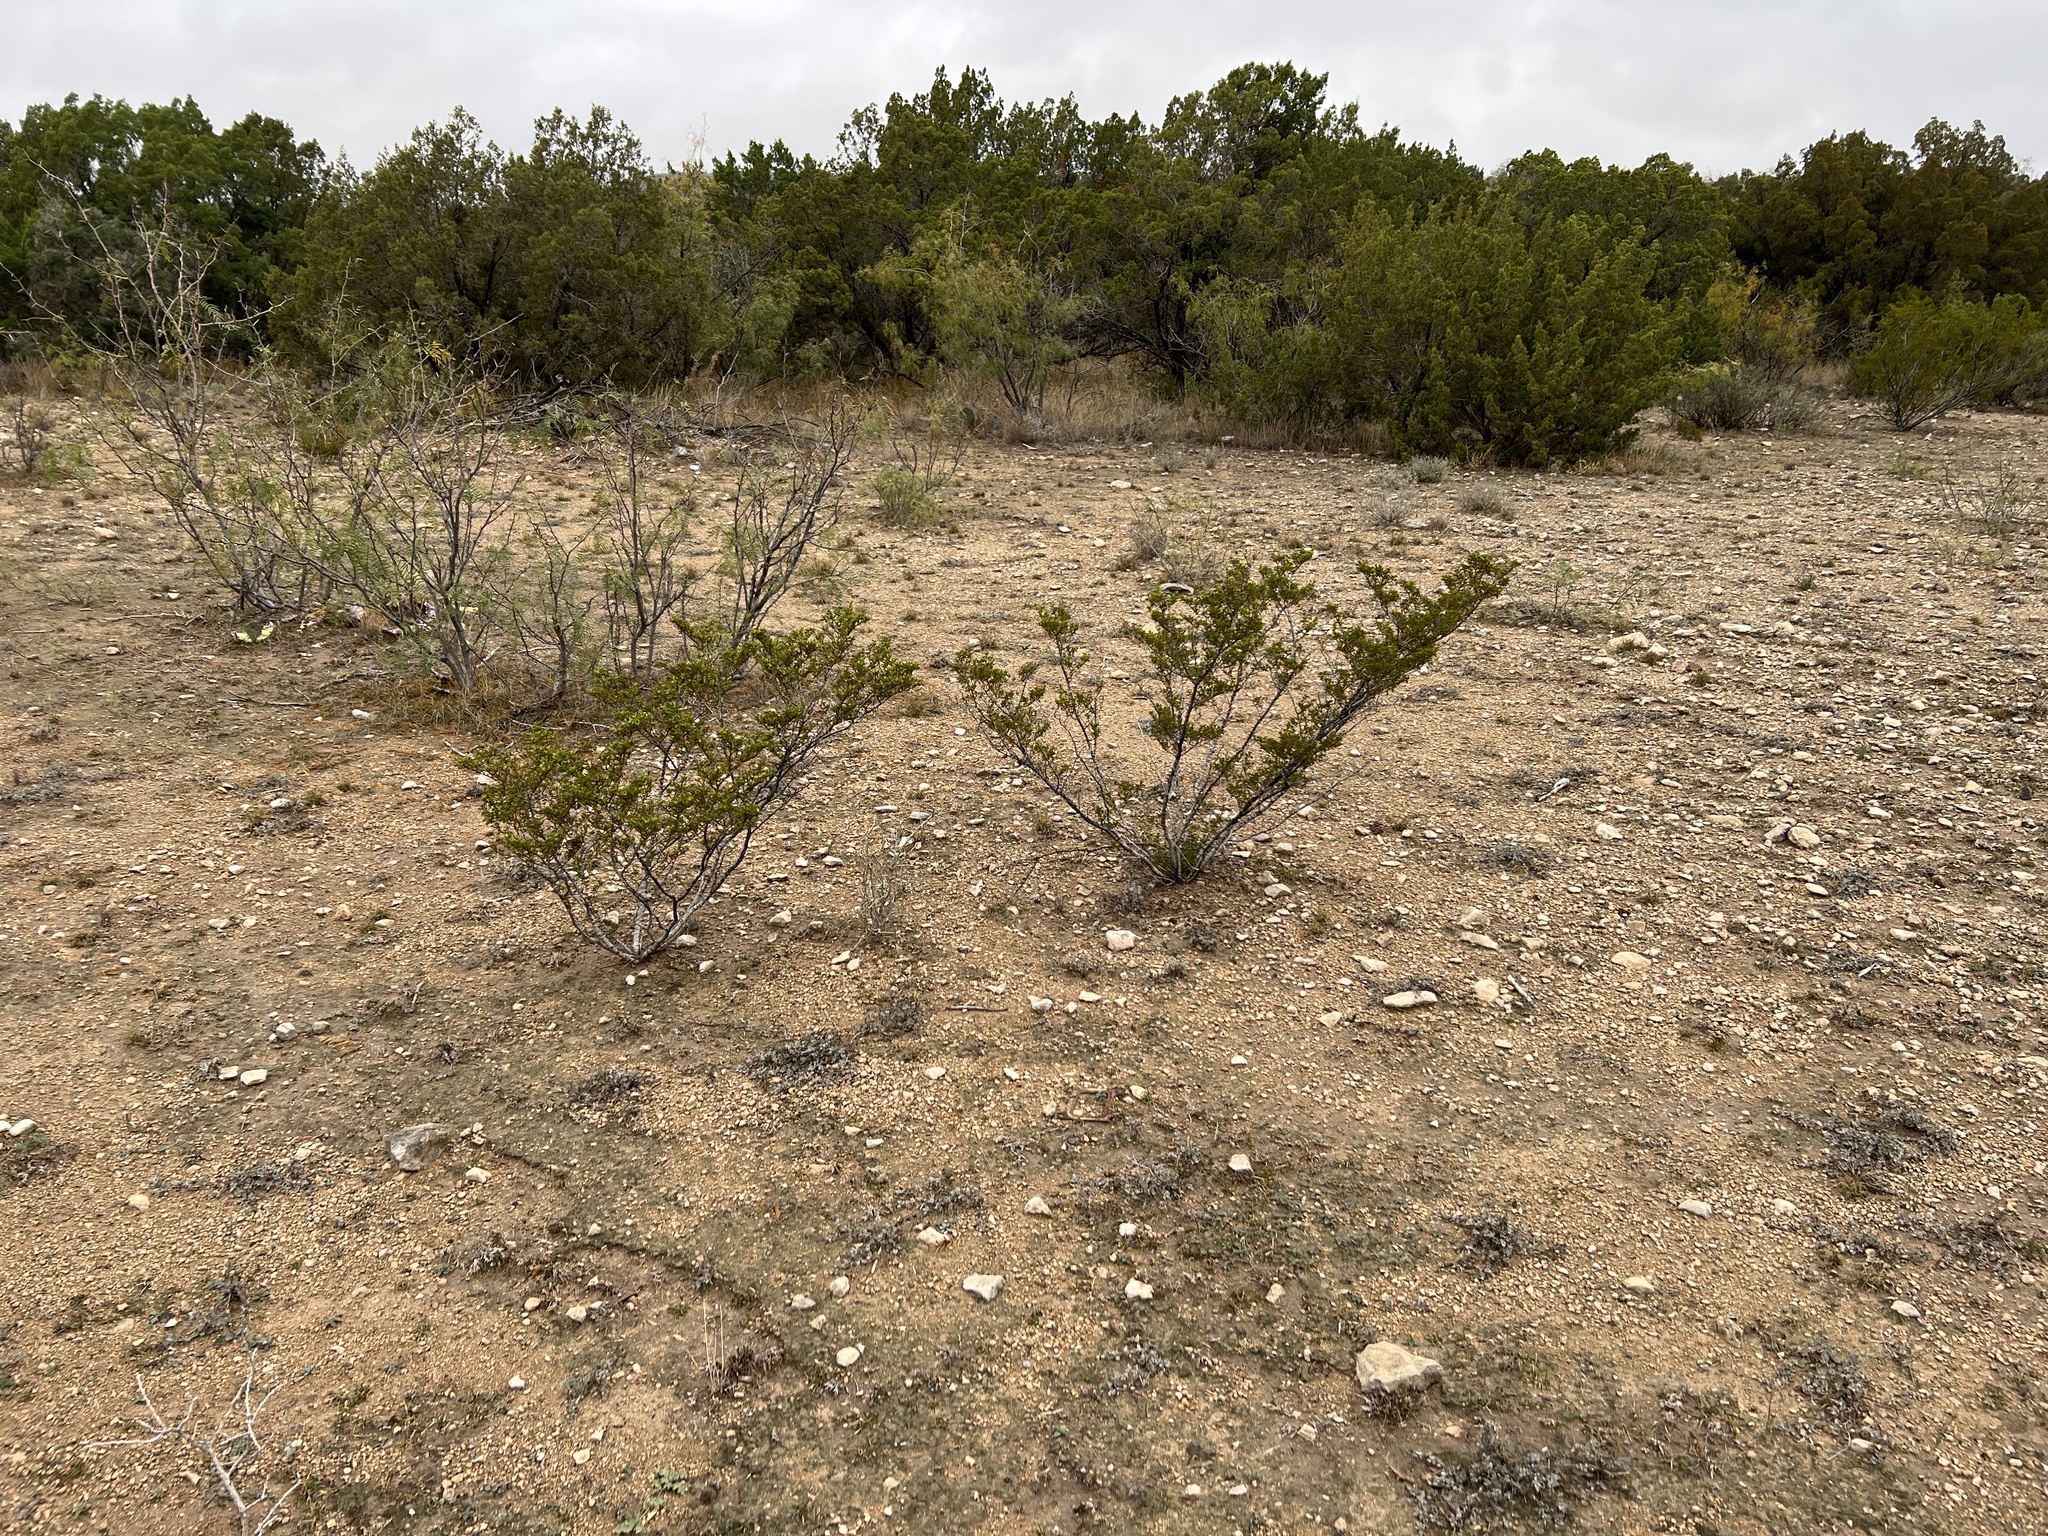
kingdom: Plantae
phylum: Tracheophyta
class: Magnoliopsida
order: Zygophyllales
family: Zygophyllaceae
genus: Larrea
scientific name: Larrea tridentata
